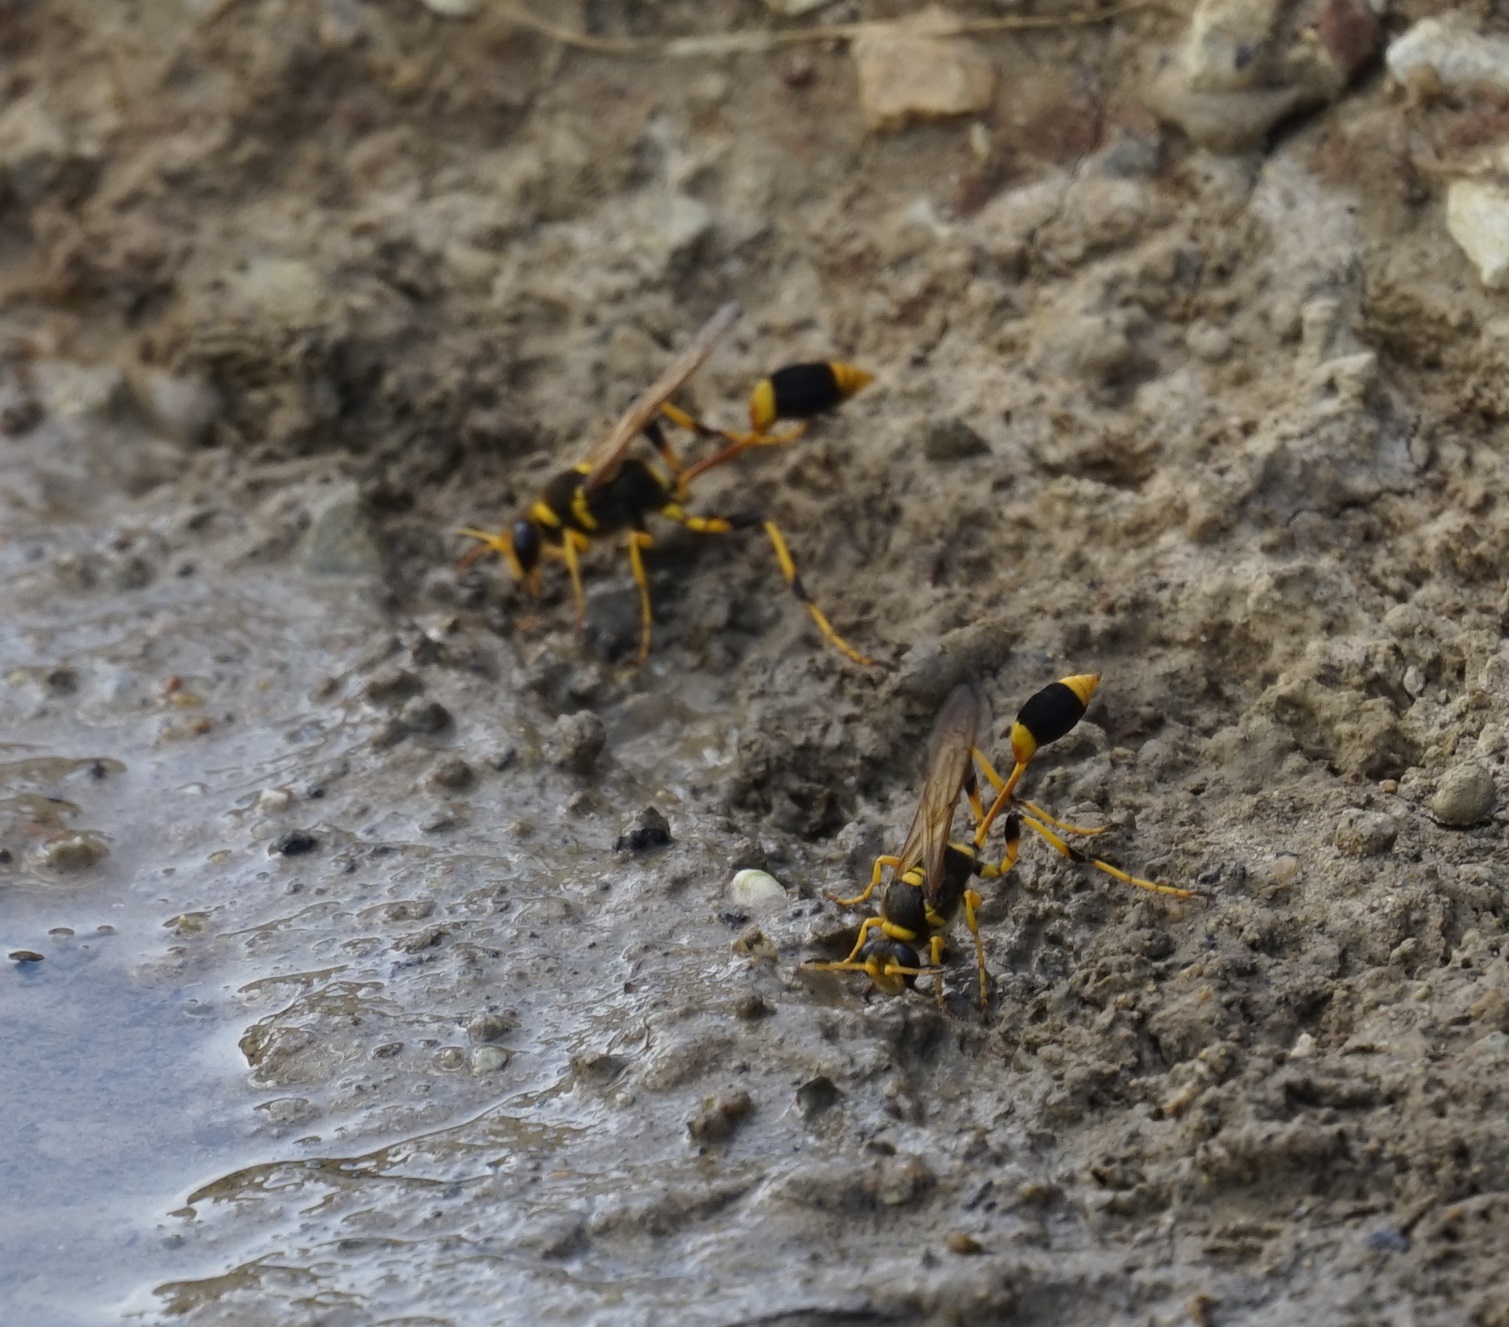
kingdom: Animalia
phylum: Arthropoda
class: Insecta
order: Hymenoptera
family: Sphecidae
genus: Sceliphron
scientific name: Sceliphron laetum
